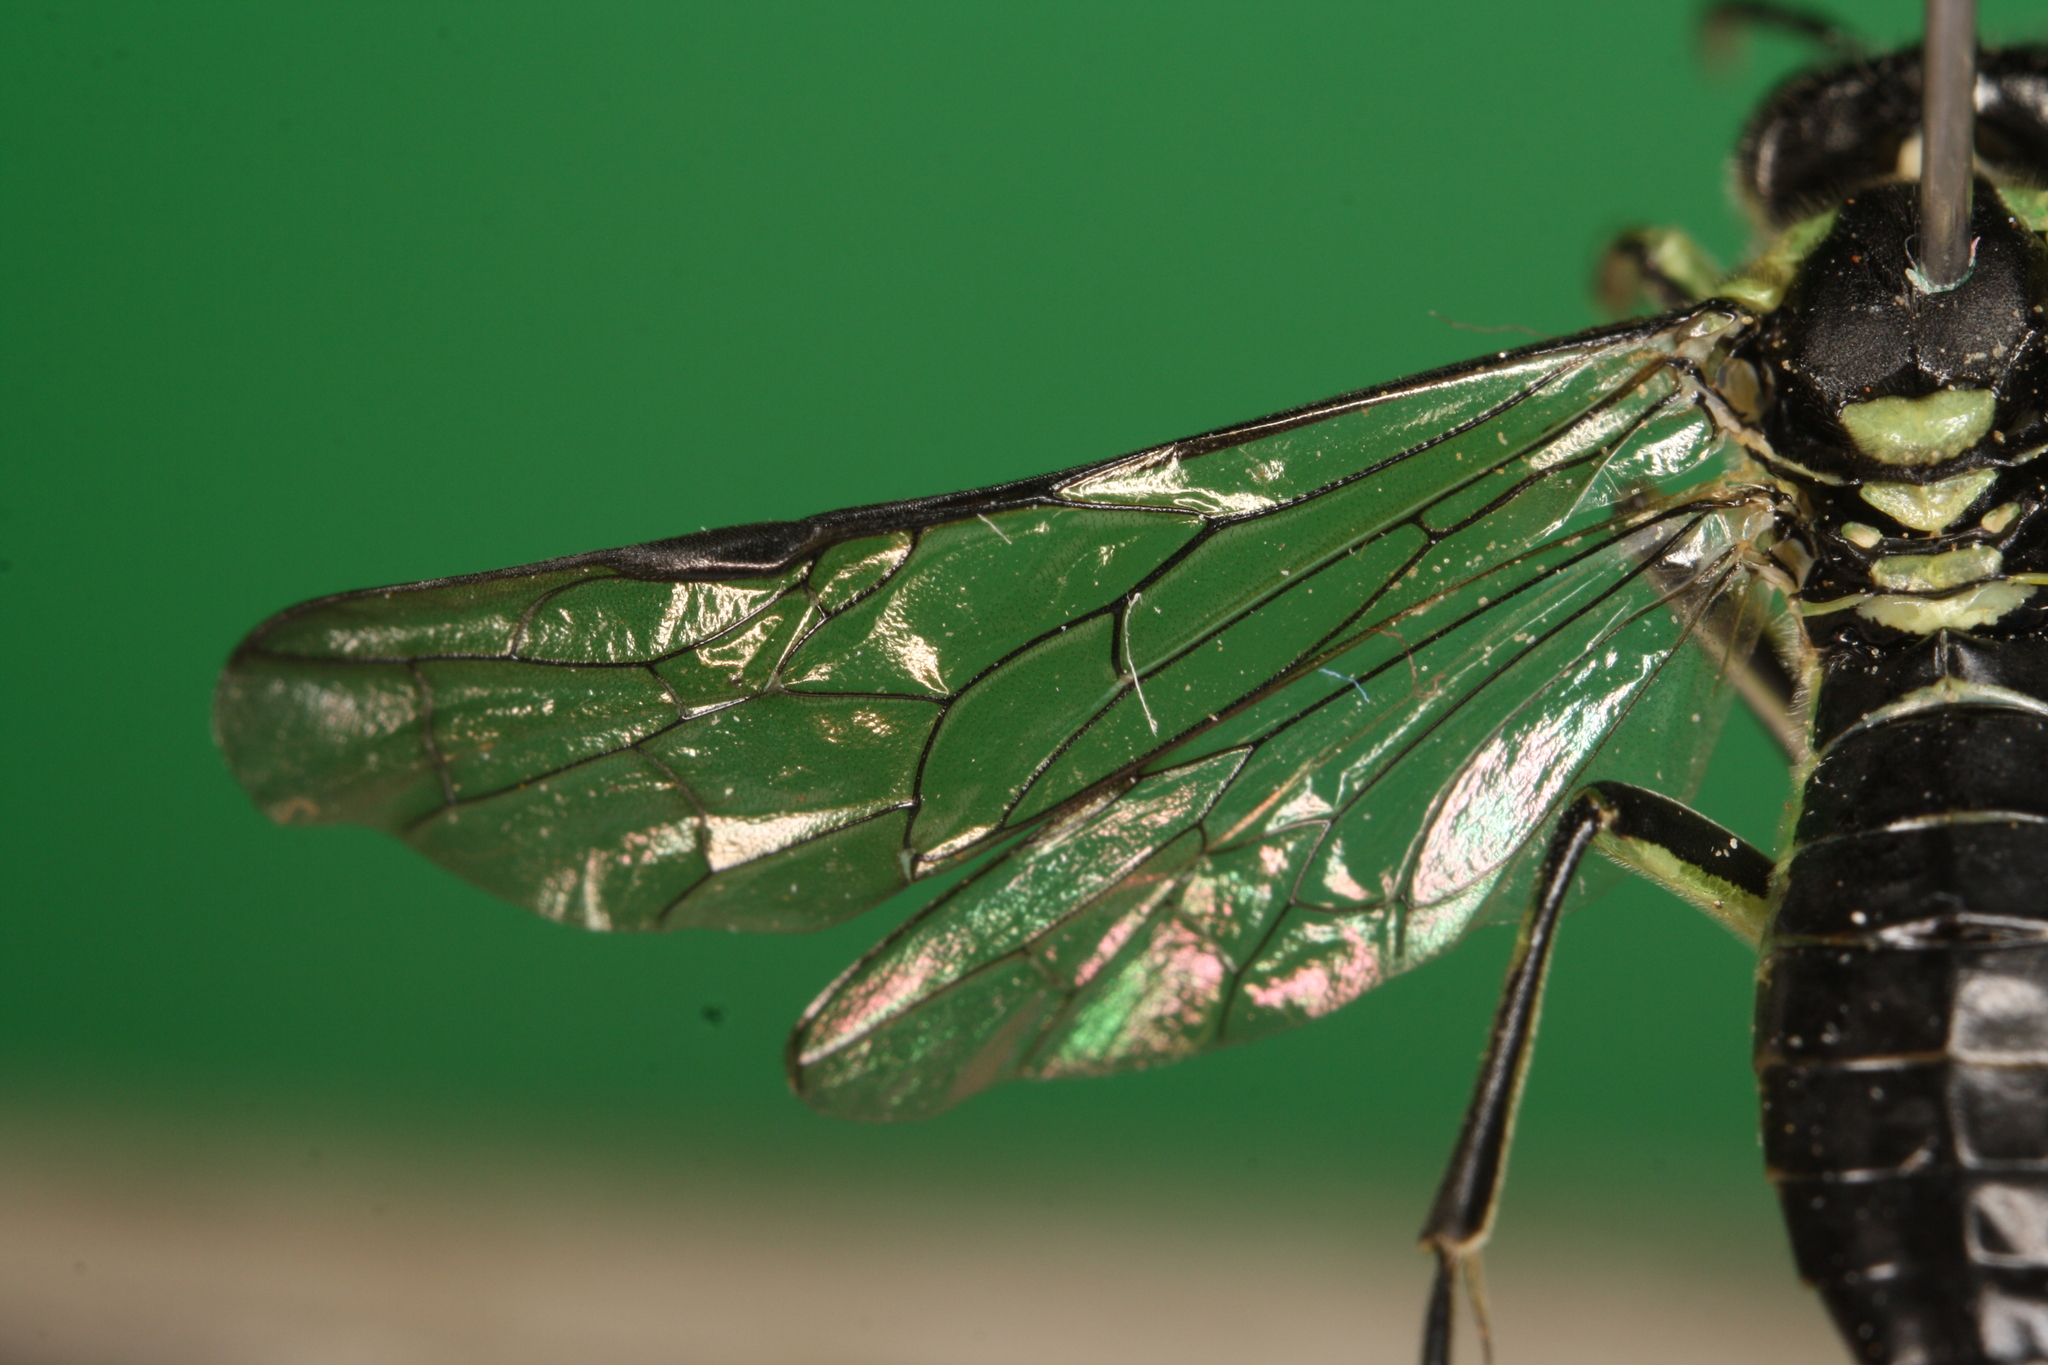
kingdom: Animalia
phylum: Arthropoda
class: Insecta
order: Hymenoptera
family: Tenthredinidae
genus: Tenthredo
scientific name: Tenthredo mesomela
